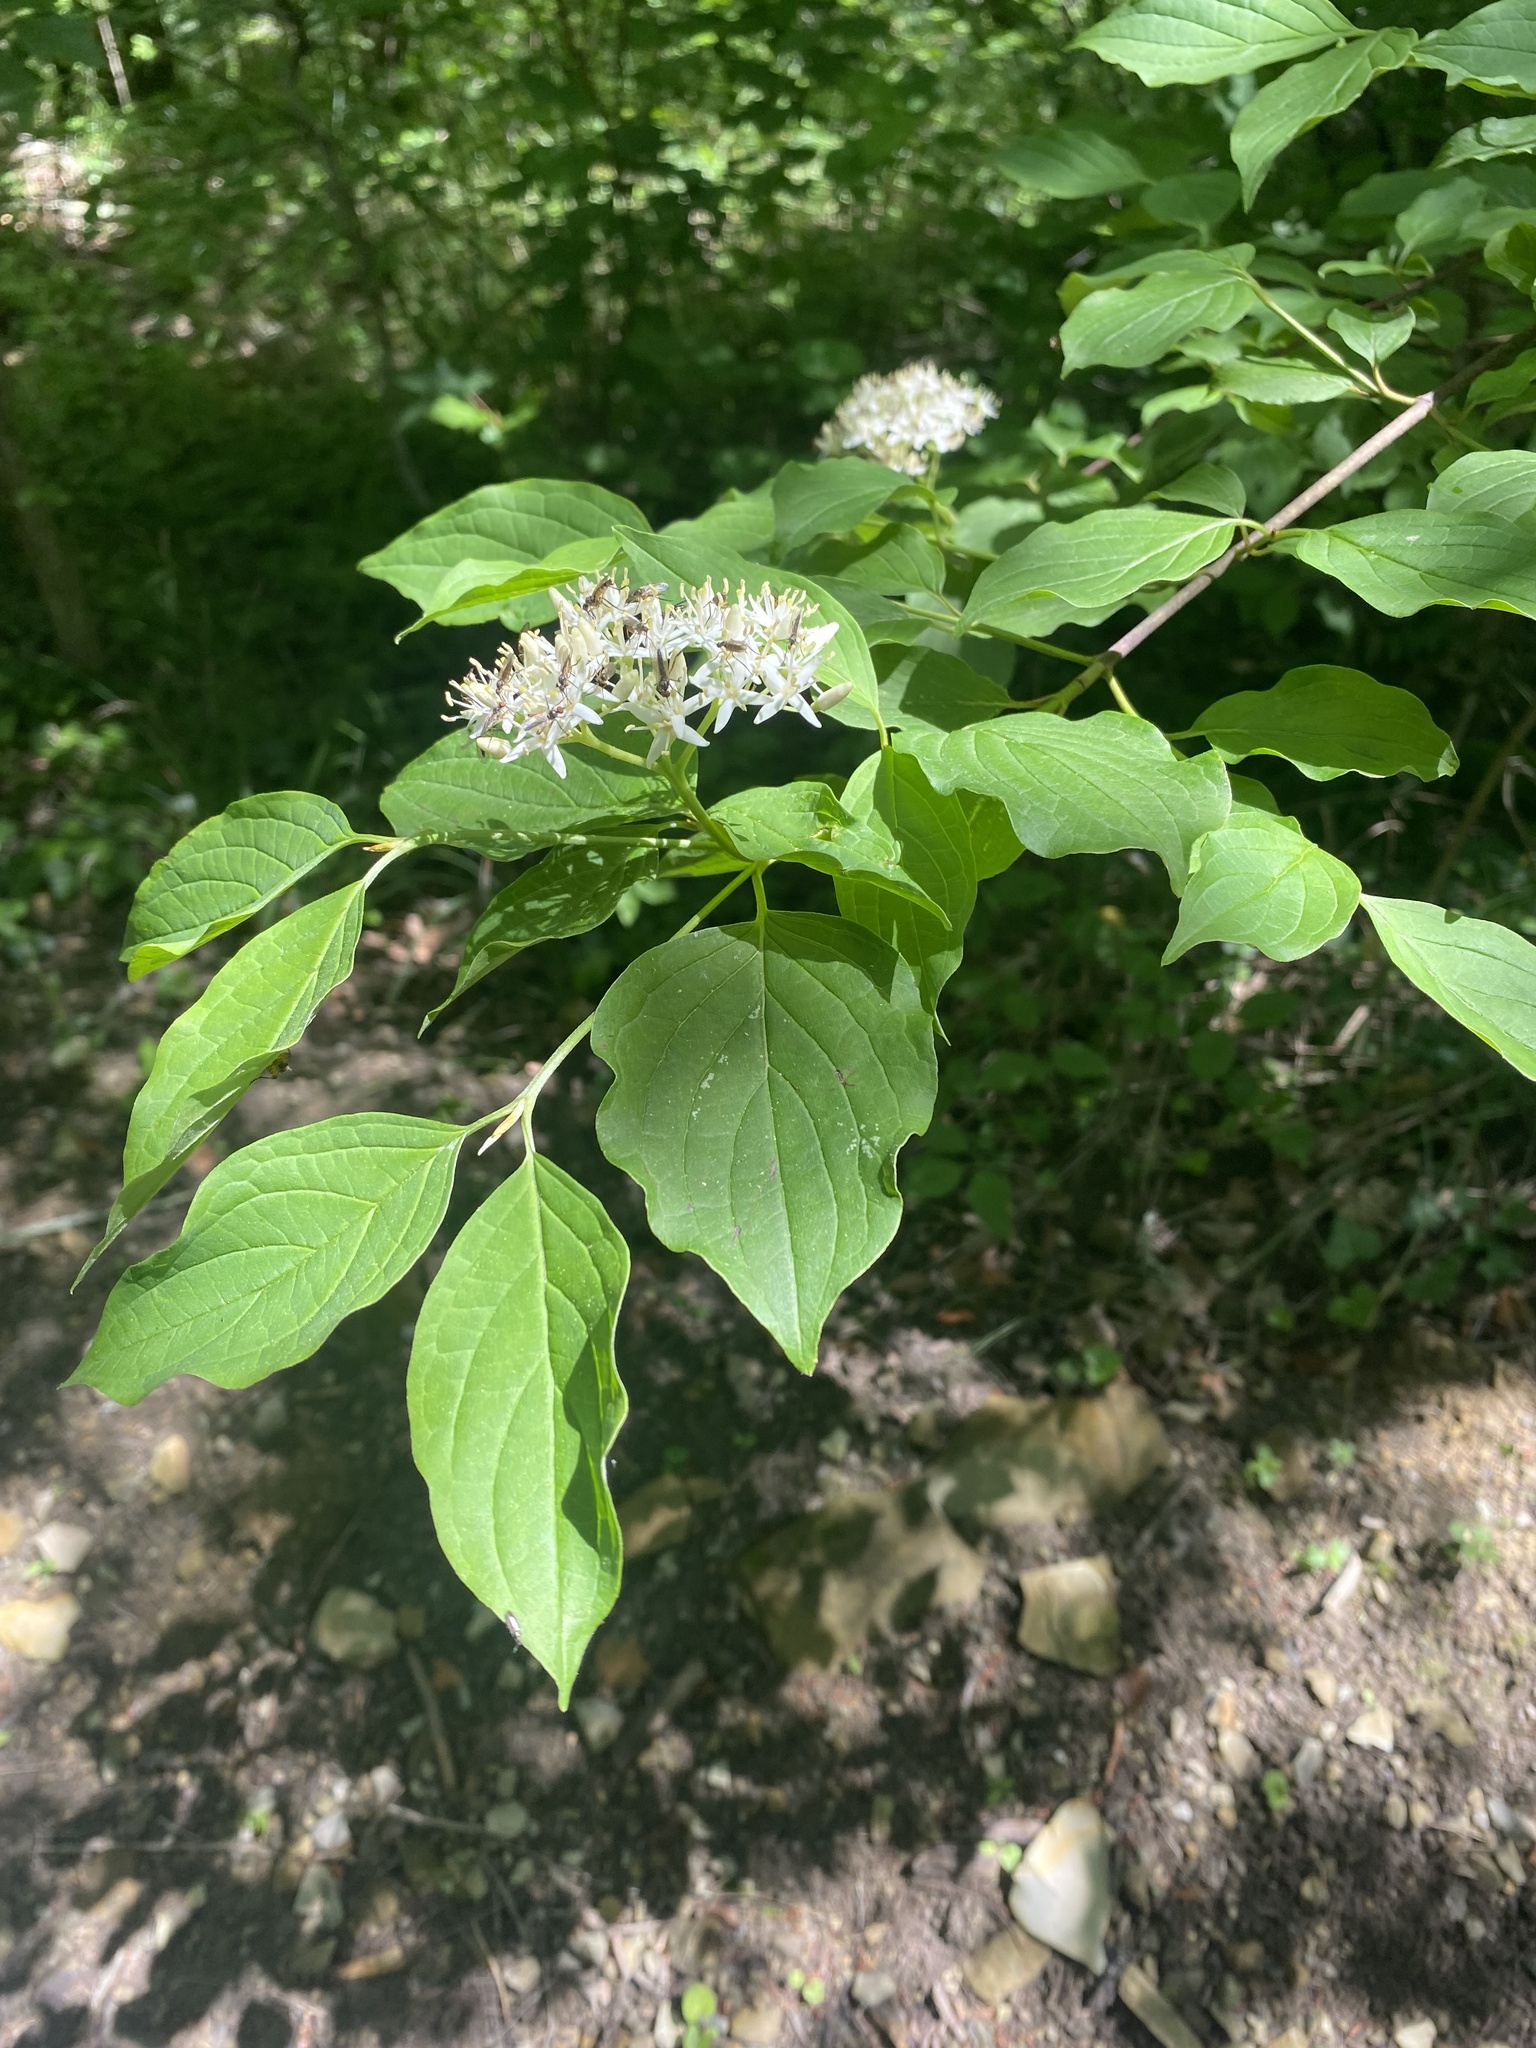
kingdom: Plantae
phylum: Tracheophyta
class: Magnoliopsida
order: Cornales
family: Cornaceae
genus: Cornus
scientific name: Cornus sanguinea
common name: Dogwood
